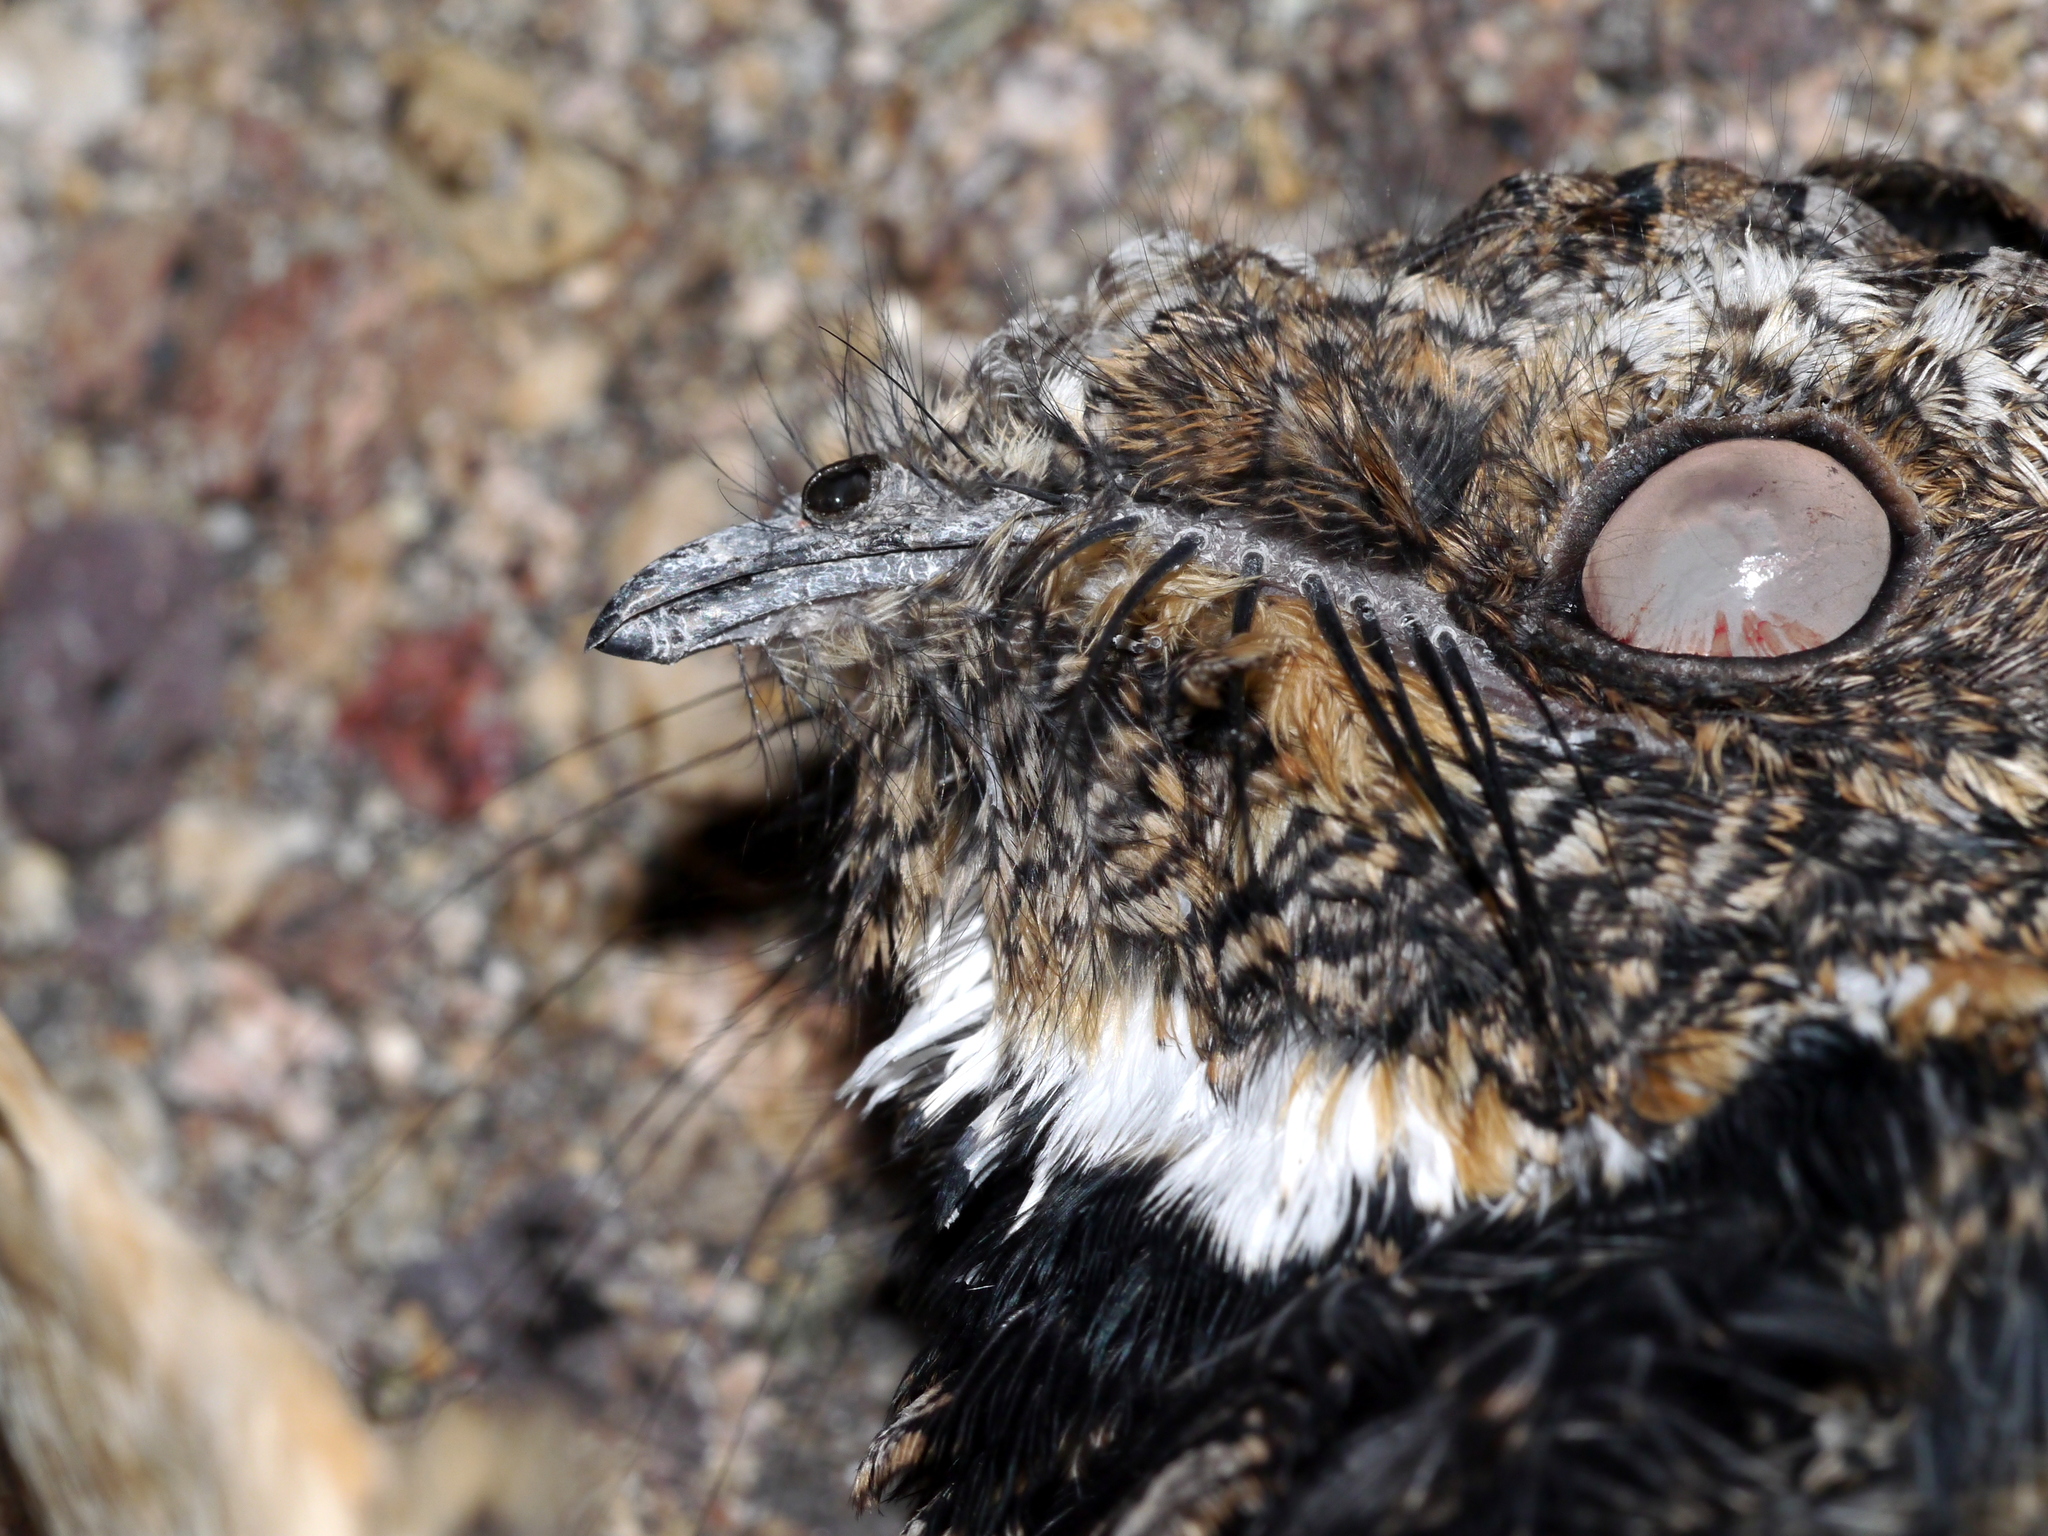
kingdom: Animalia
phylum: Chordata
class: Aves
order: Caprimulgiformes
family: Caprimulgidae
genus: Phalaenoptilus
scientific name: Phalaenoptilus nuttallii
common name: Common poorwill
